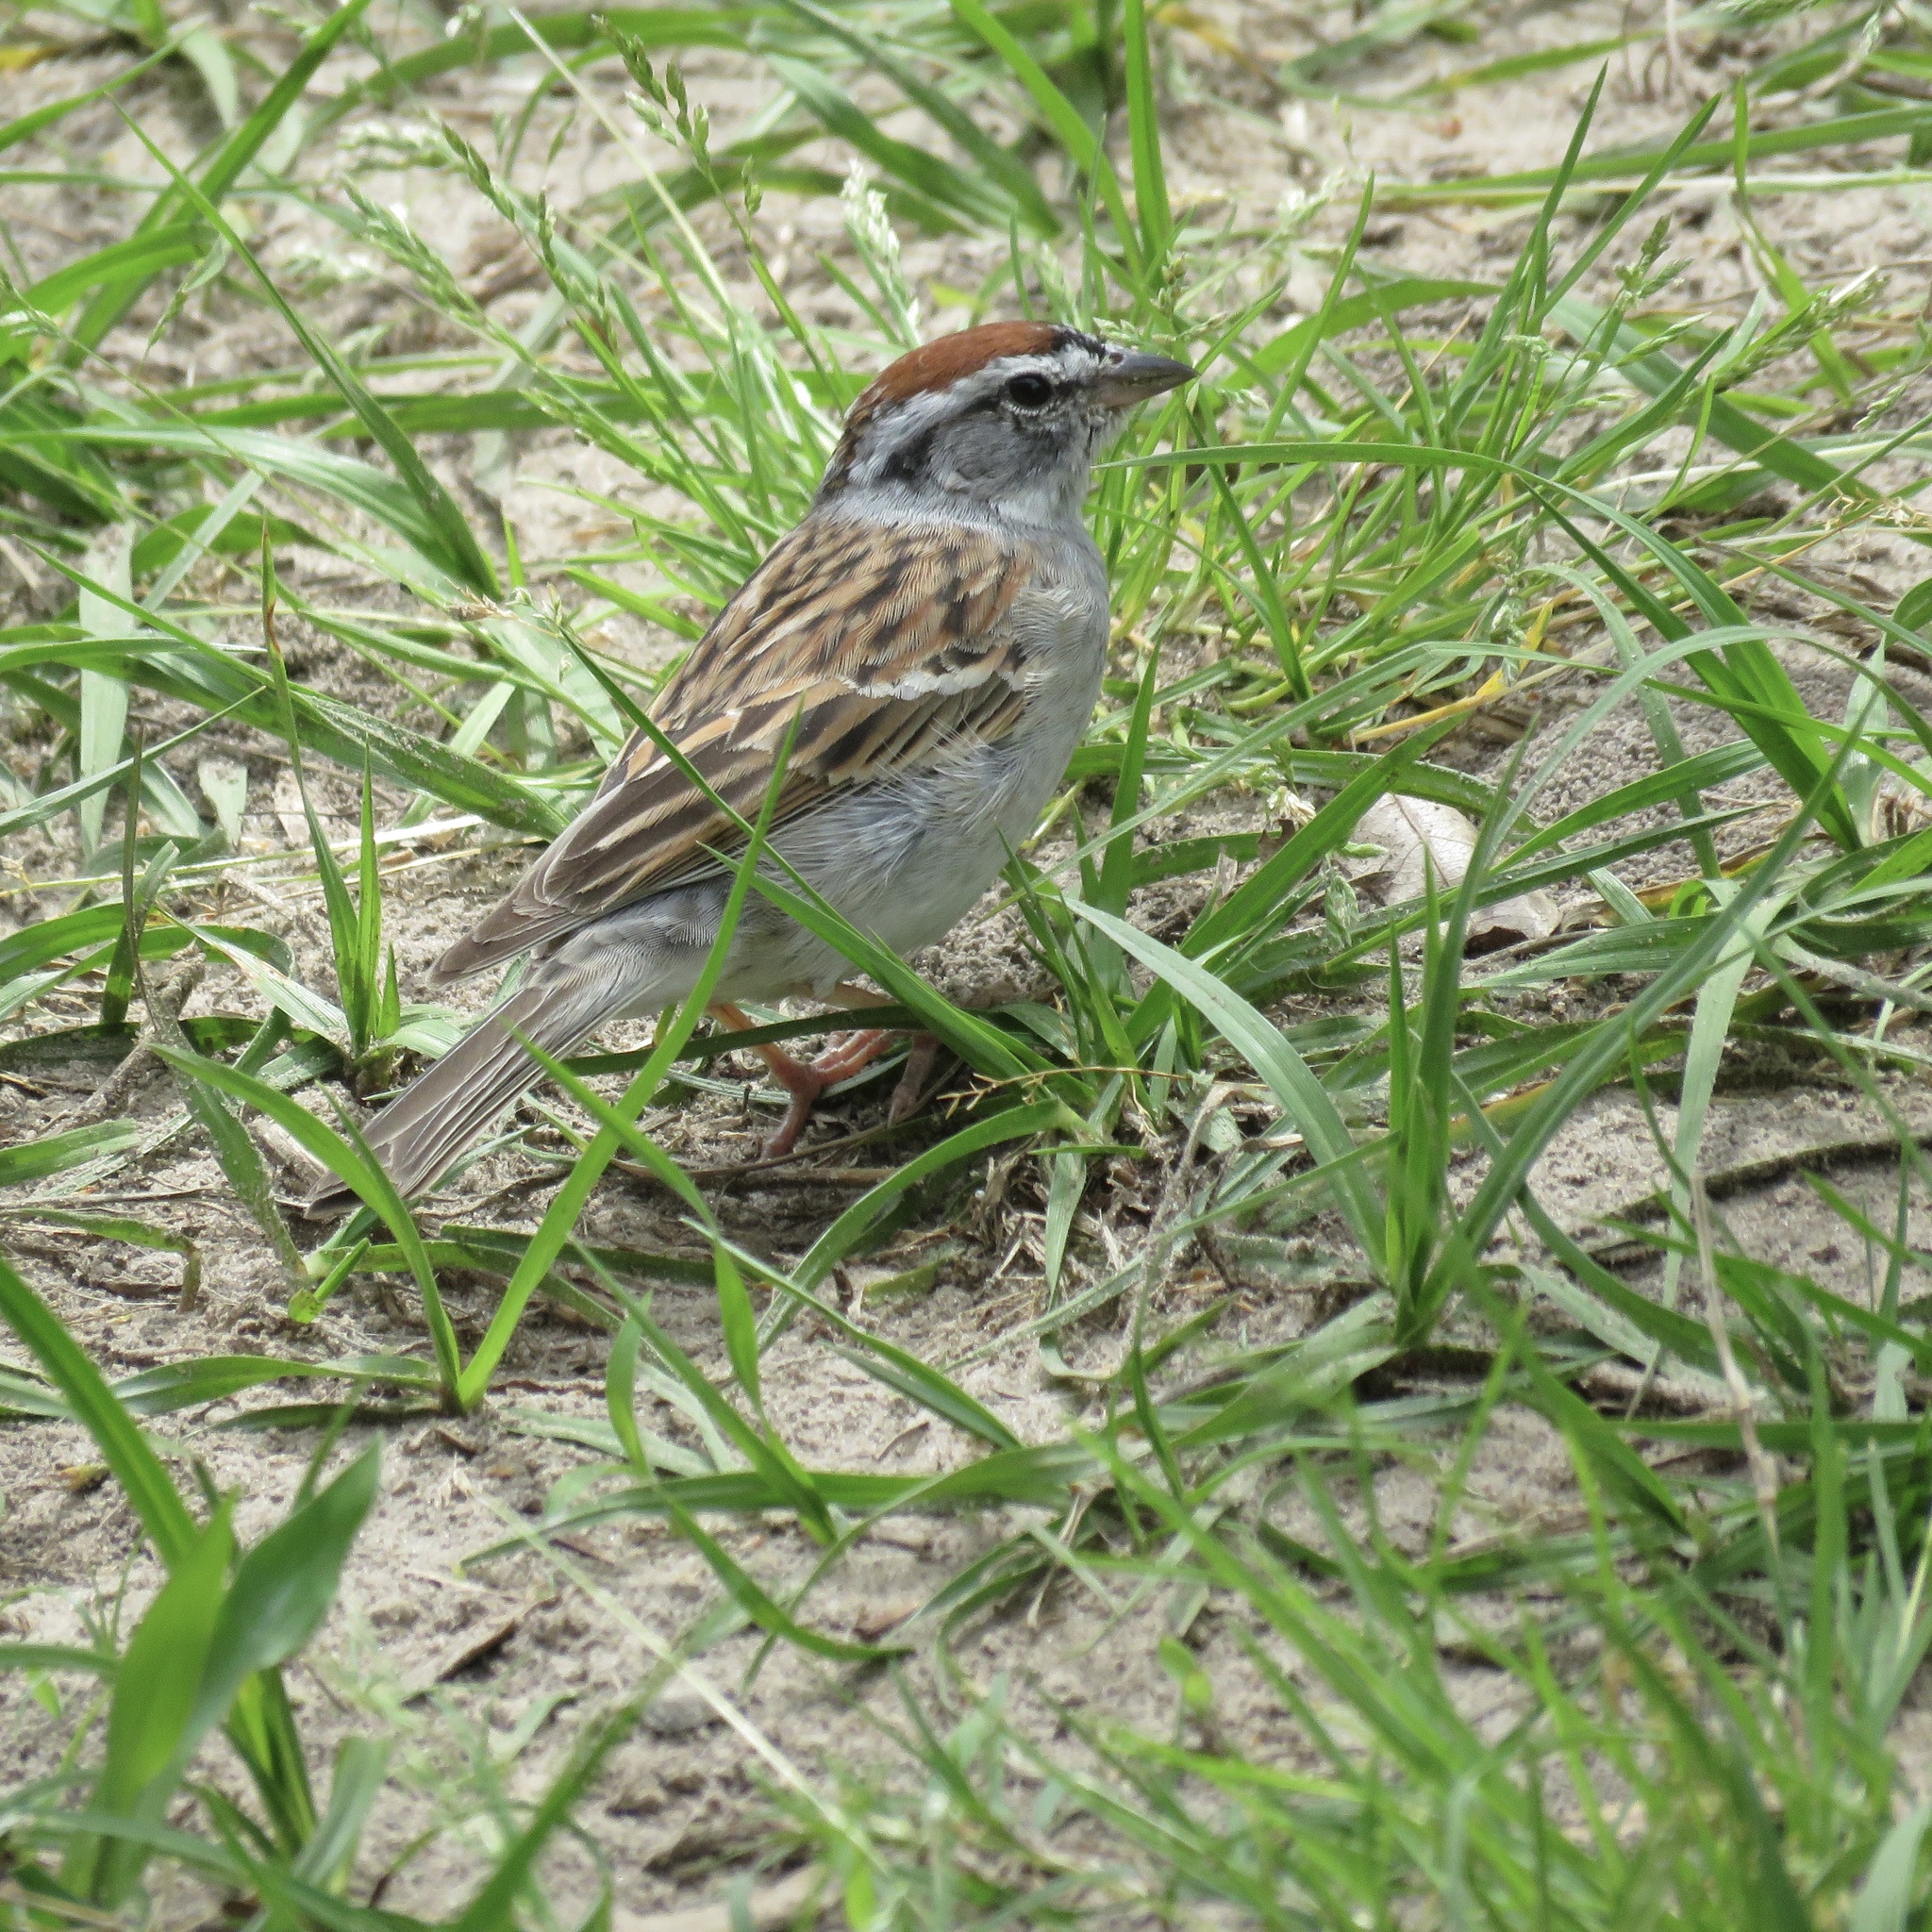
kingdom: Animalia
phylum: Chordata
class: Aves
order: Passeriformes
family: Passerellidae
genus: Spizella
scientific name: Spizella passerina
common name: Chipping sparrow
